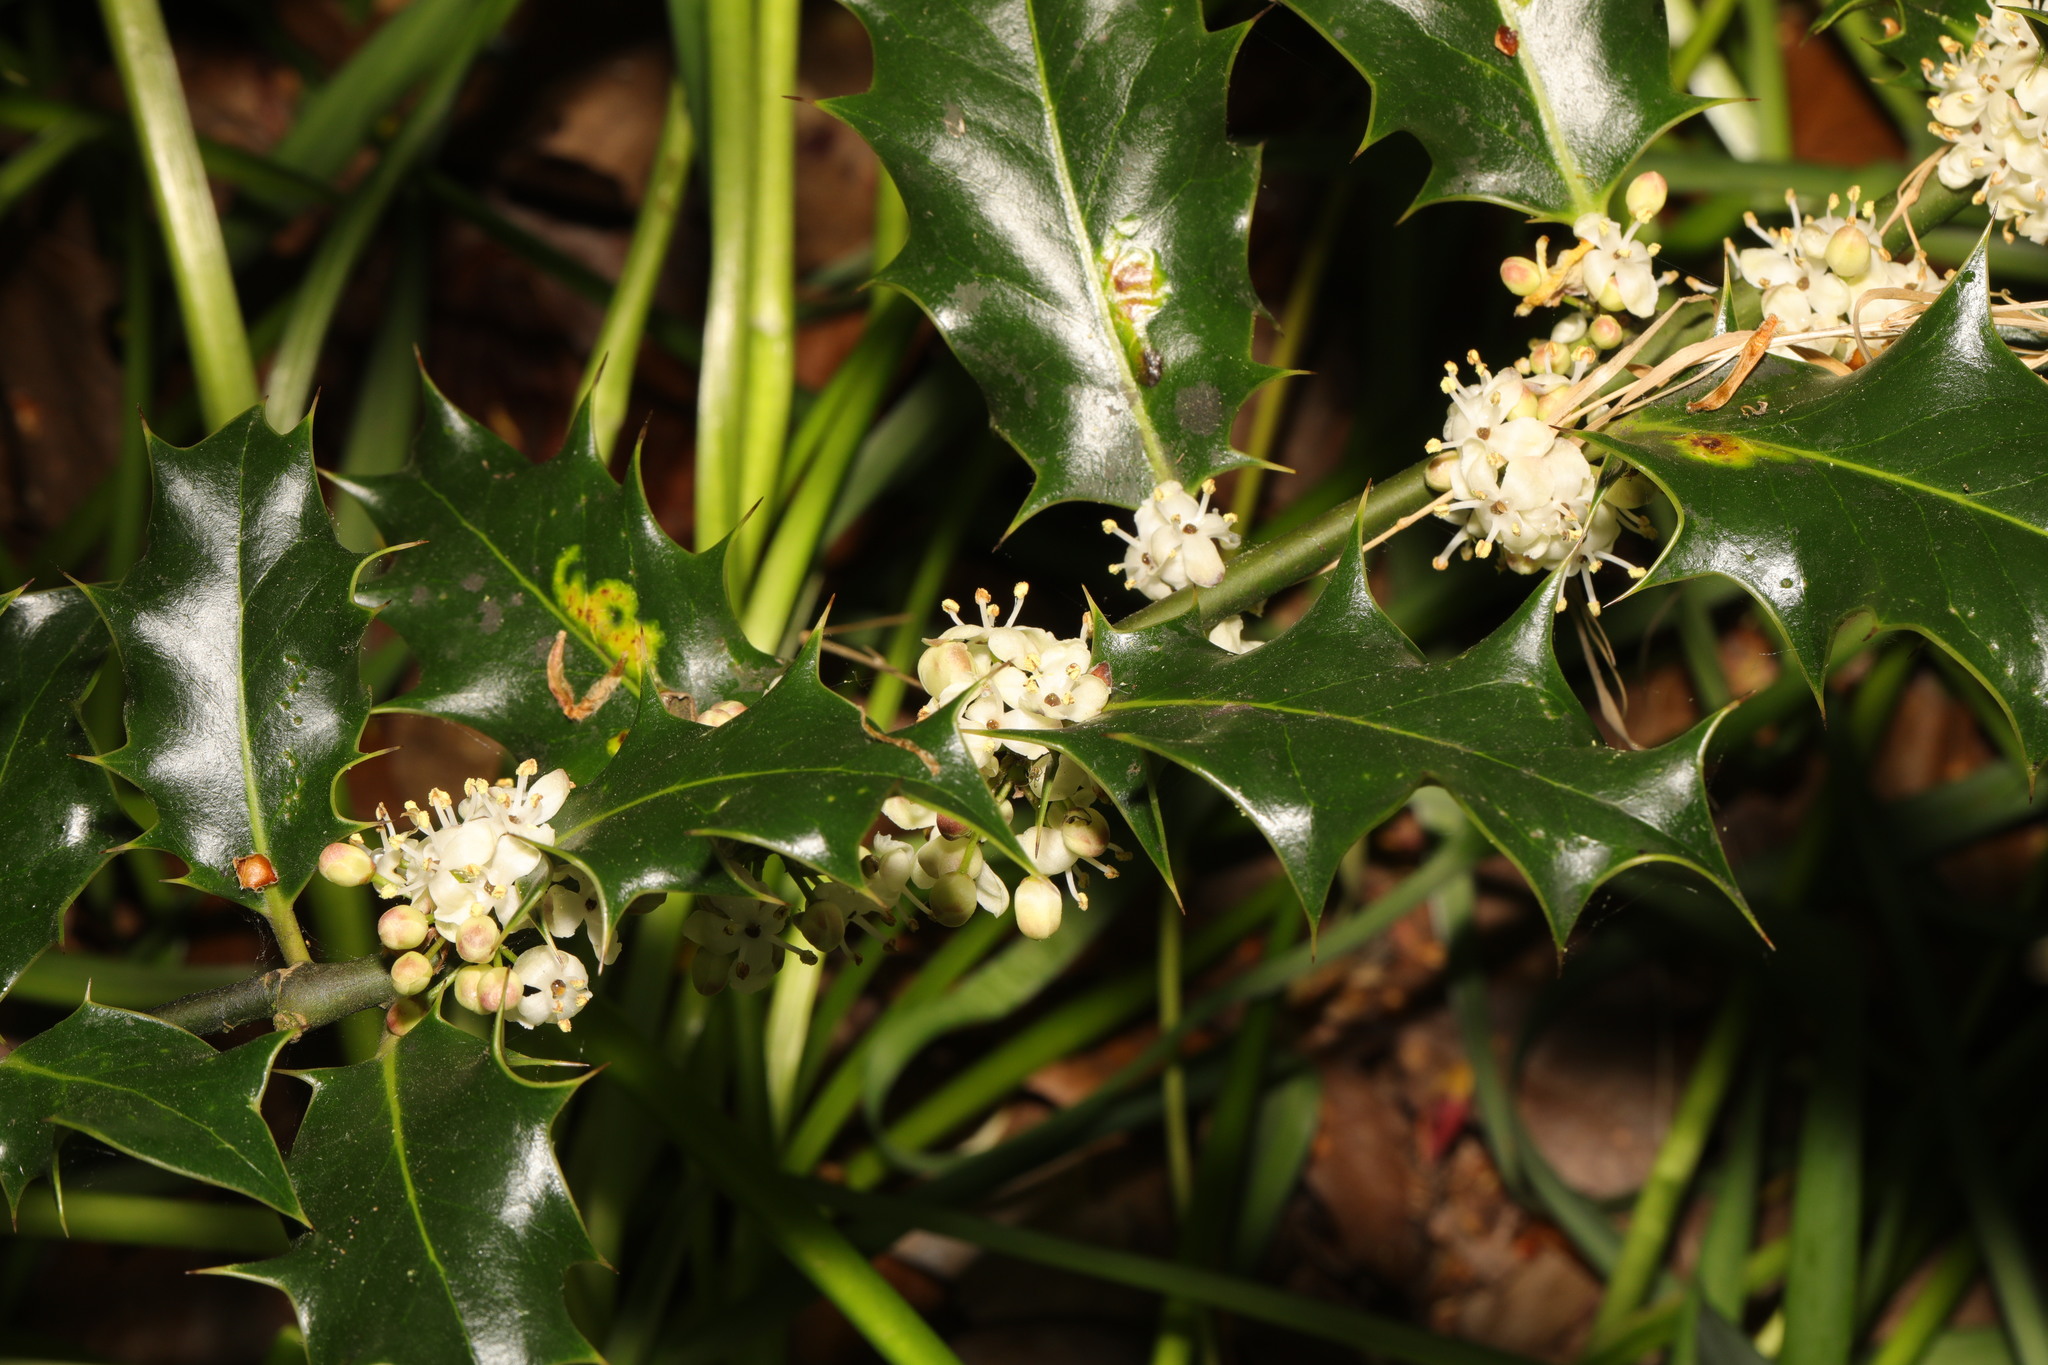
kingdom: Plantae
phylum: Tracheophyta
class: Magnoliopsida
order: Aquifoliales
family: Aquifoliaceae
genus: Ilex
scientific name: Ilex aquifolium
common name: English holly
